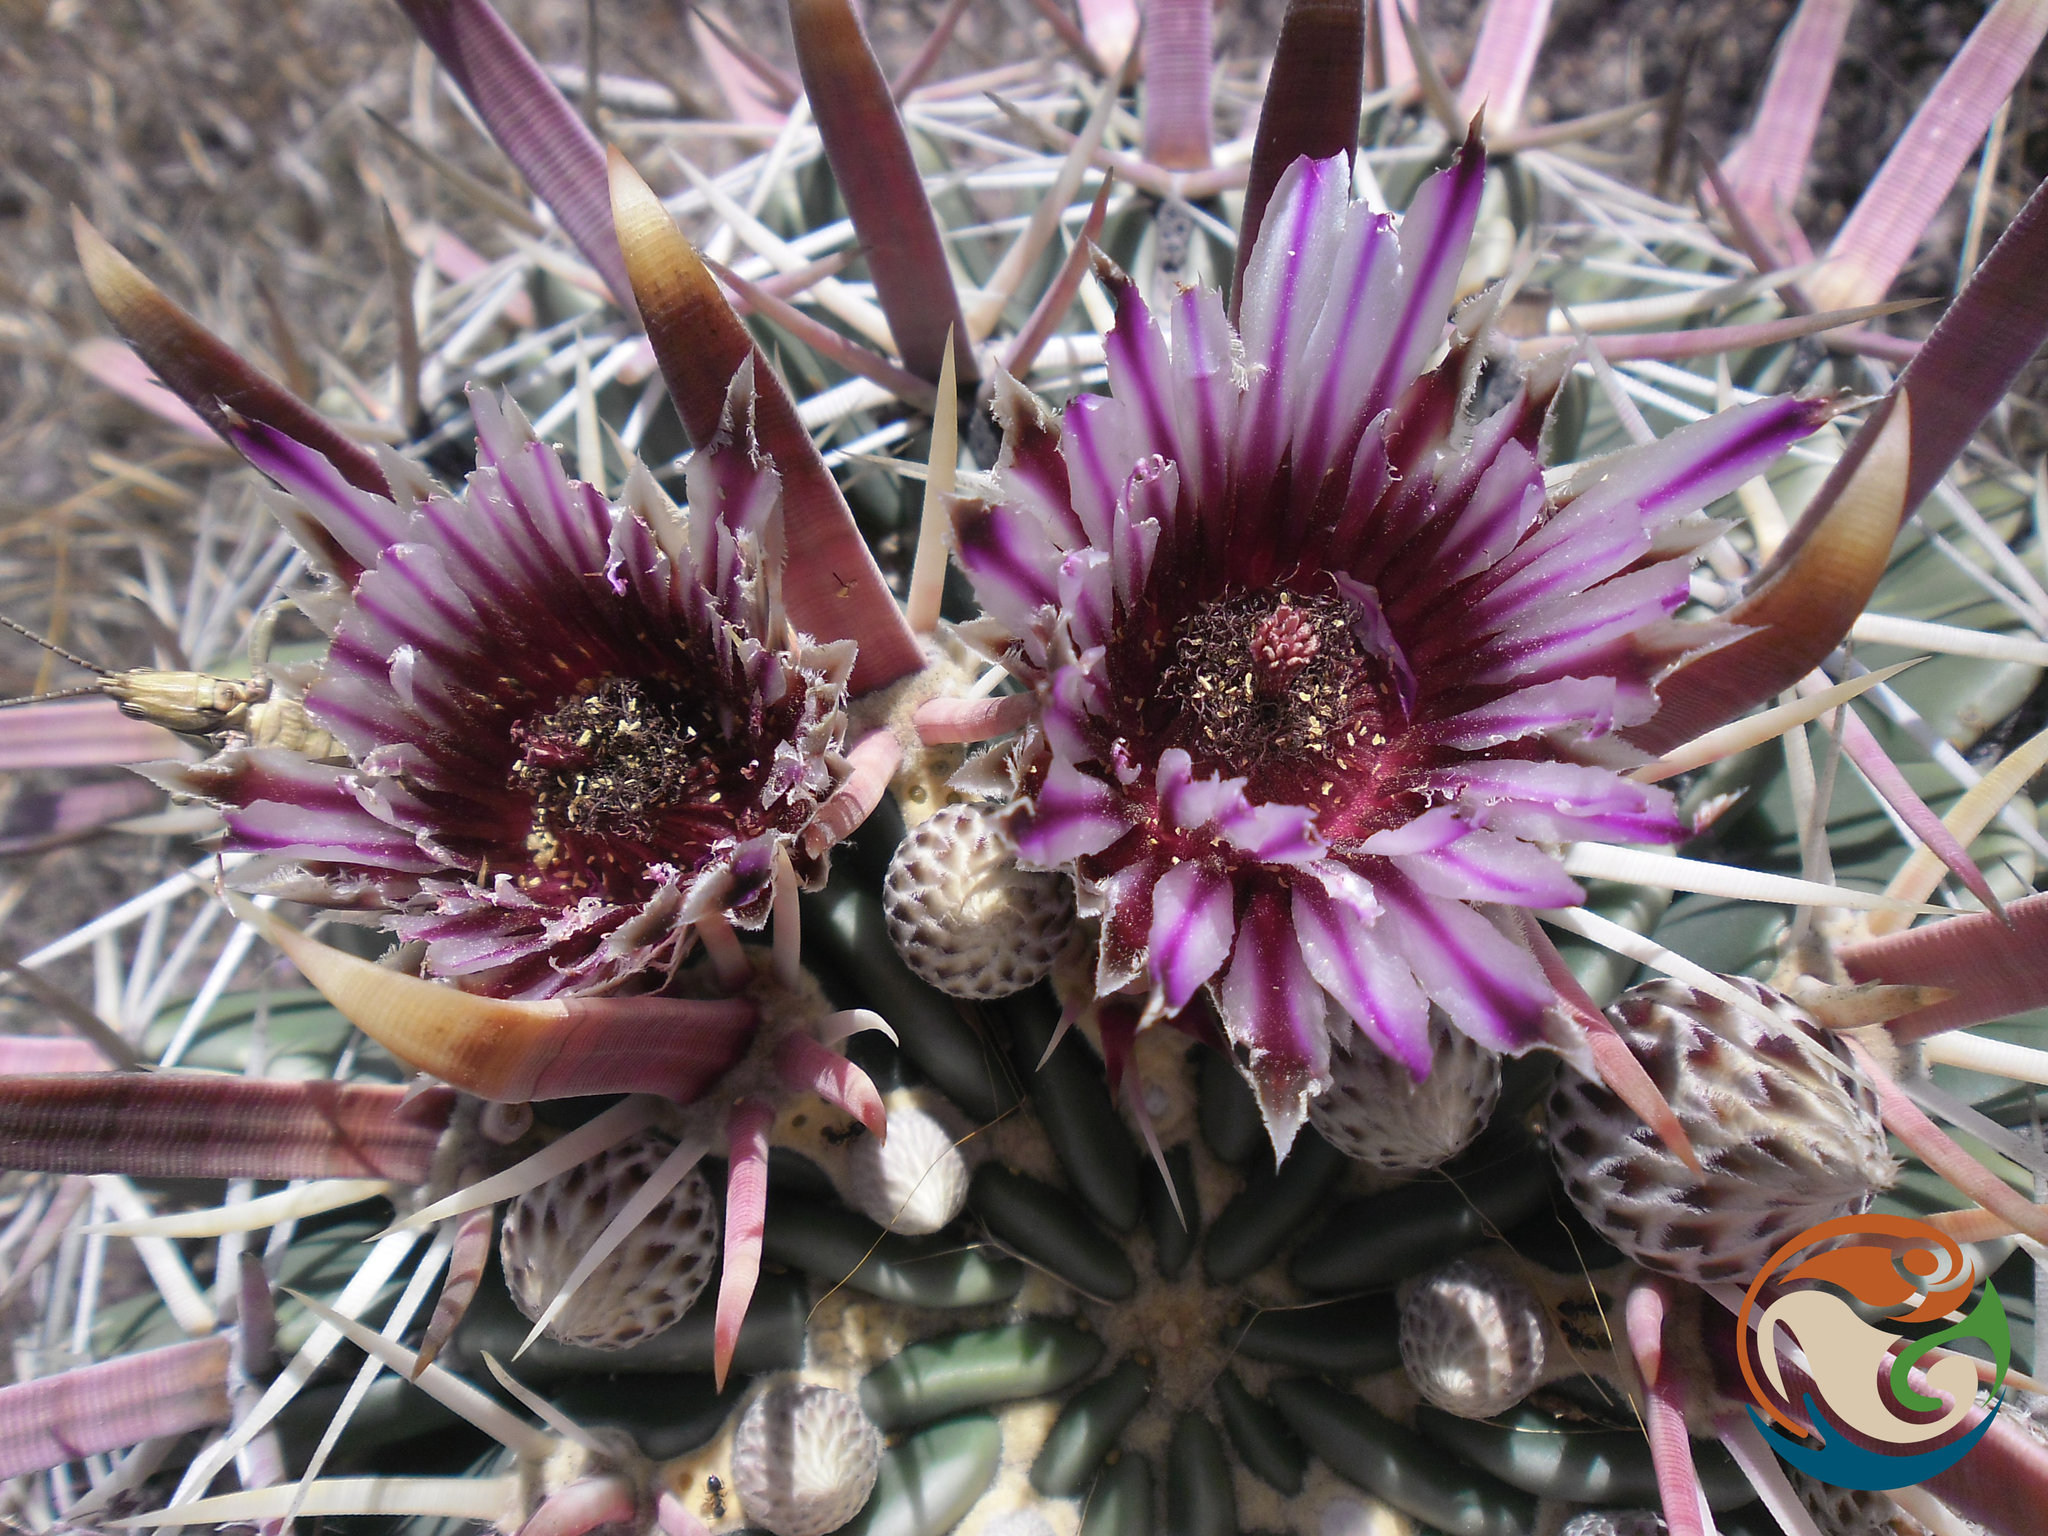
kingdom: Plantae
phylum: Tracheophyta
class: Magnoliopsida
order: Caryophyllales
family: Cactaceae
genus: Ferocactus
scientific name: Ferocactus latispinus
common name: Devil's-tongue cactus
